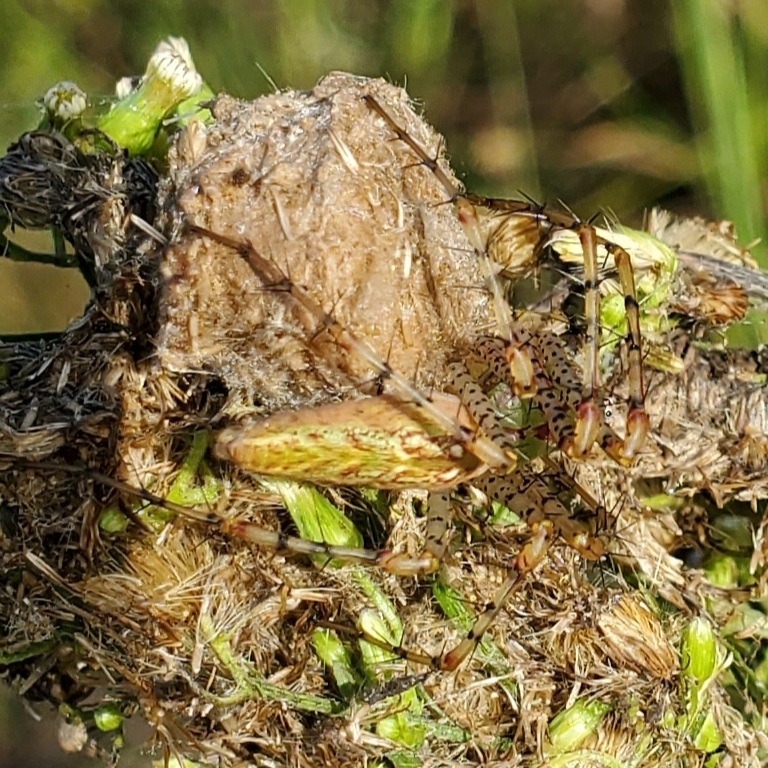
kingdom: Animalia
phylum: Arthropoda
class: Arachnida
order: Araneae
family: Oxyopidae
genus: Peucetia
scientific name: Peucetia viridans
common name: Lynx spiders
